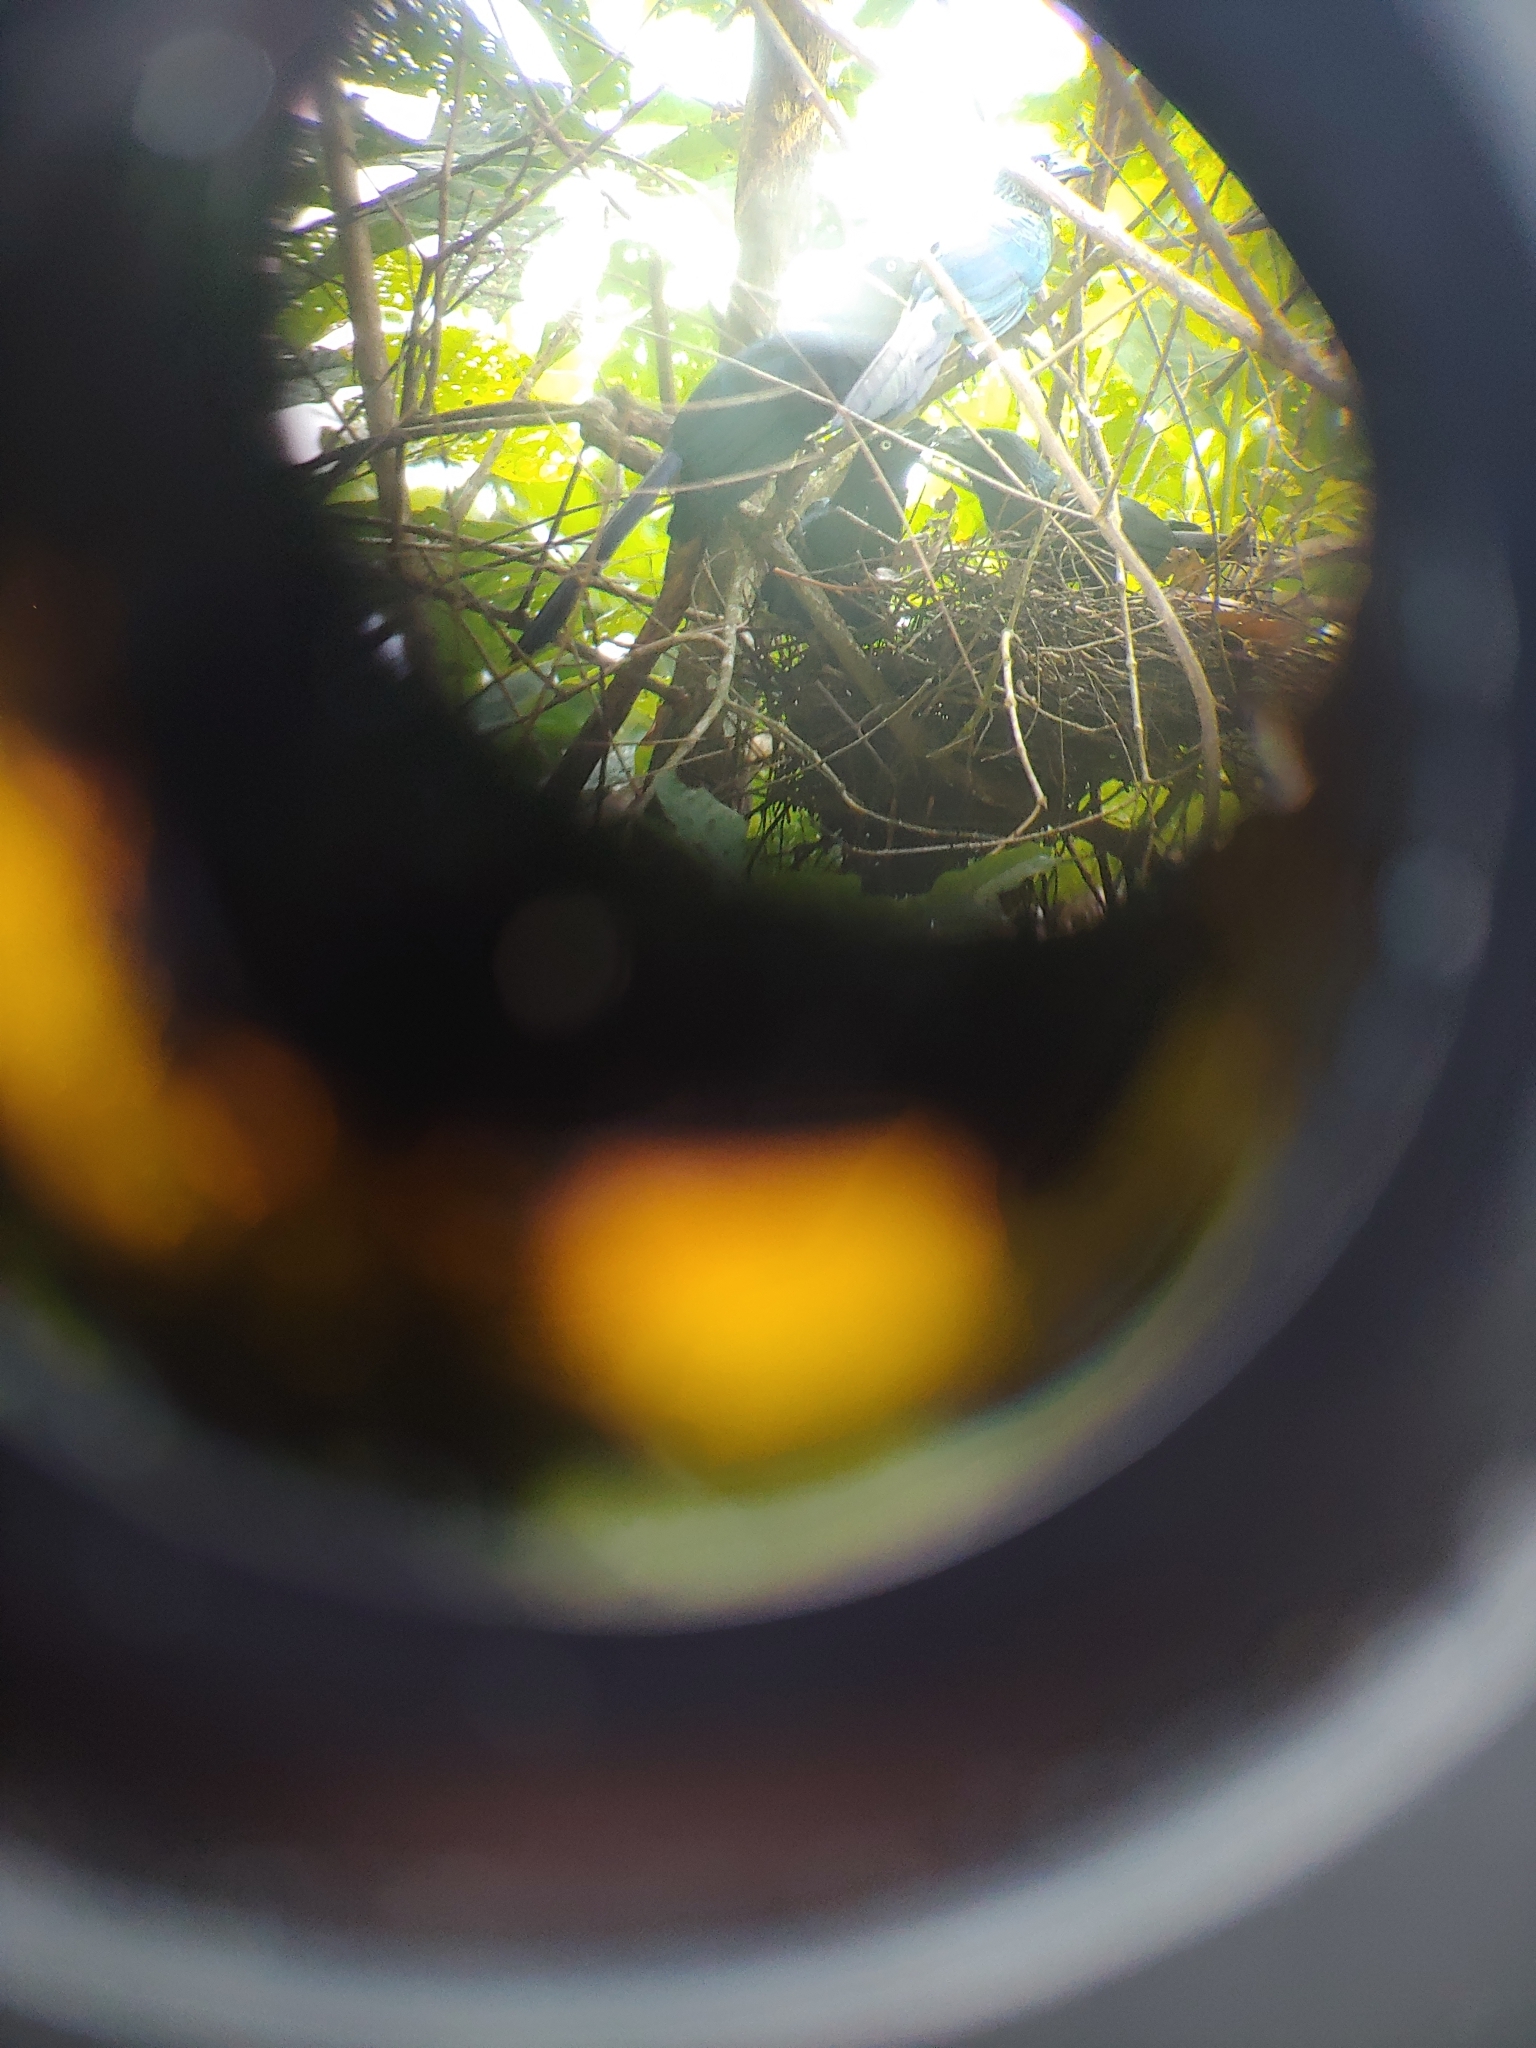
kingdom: Animalia
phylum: Chordata
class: Aves
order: Cuculiformes
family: Cuculidae
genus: Crotophaga
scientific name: Crotophaga major
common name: Greater ani
